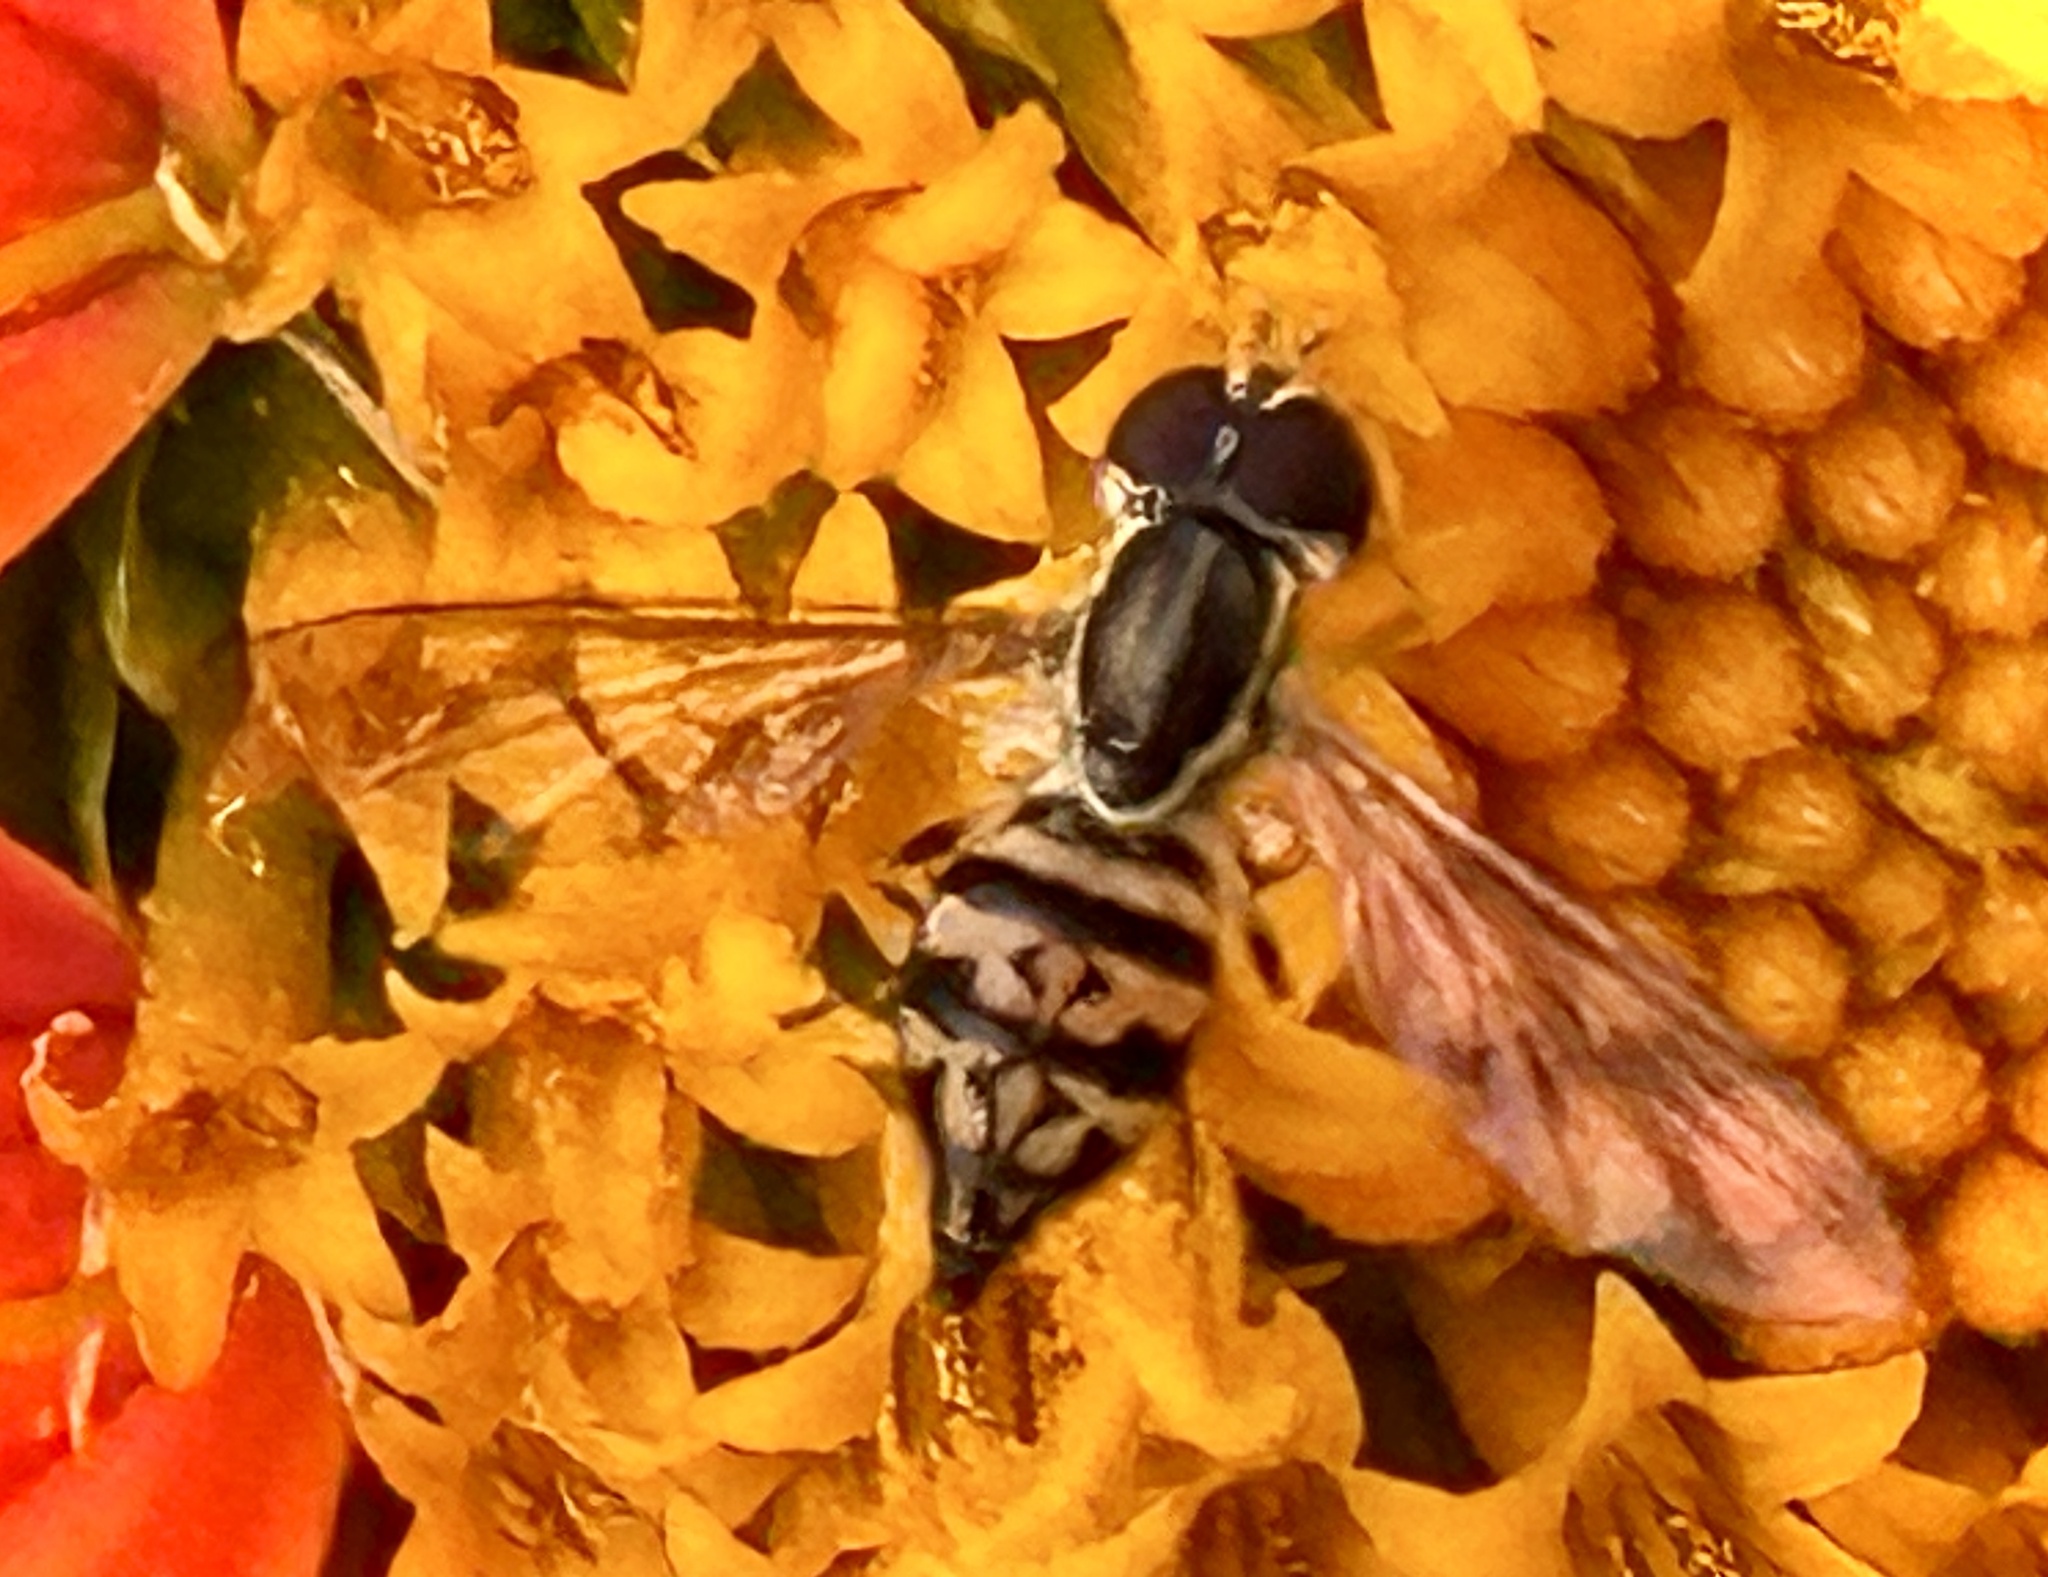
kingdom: Animalia
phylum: Arthropoda
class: Insecta
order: Diptera
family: Syrphidae
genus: Toxomerus
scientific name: Toxomerus geminatus
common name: Eastern calligrapher
